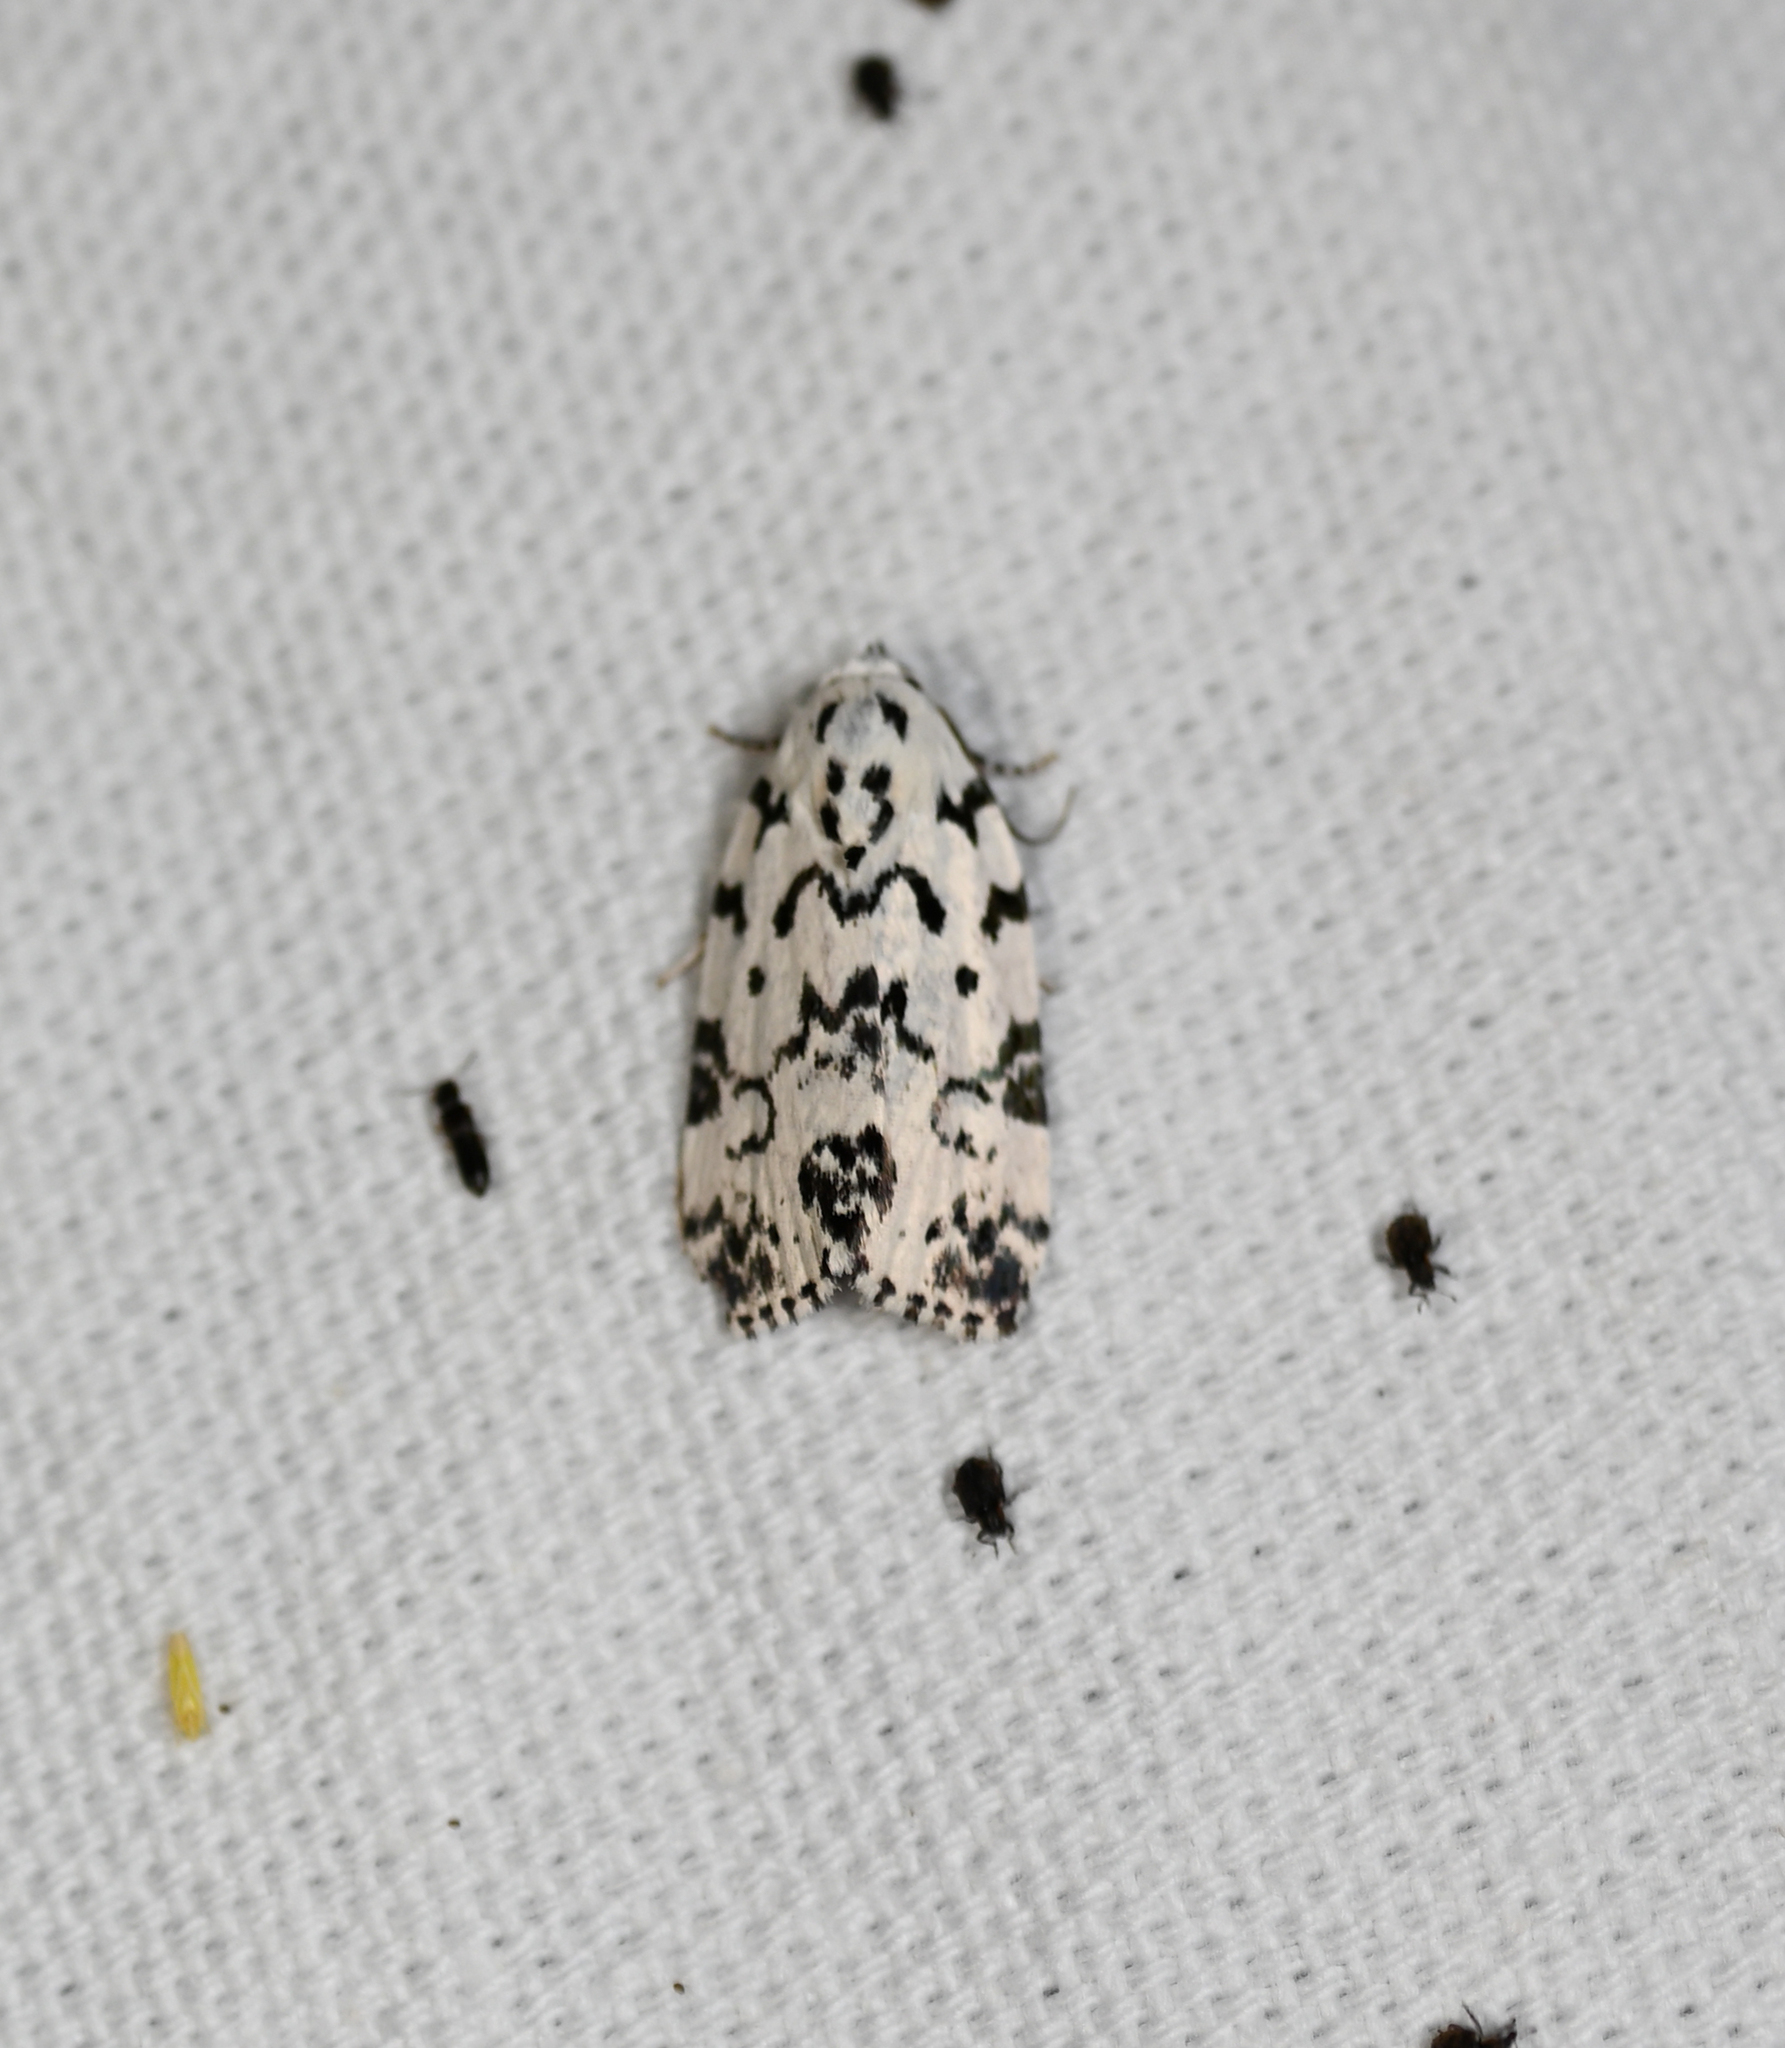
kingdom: Animalia
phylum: Arthropoda
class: Insecta
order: Lepidoptera
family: Noctuidae
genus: Polygrammate
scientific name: Polygrammate hebraeicum
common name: Hebrew moth
